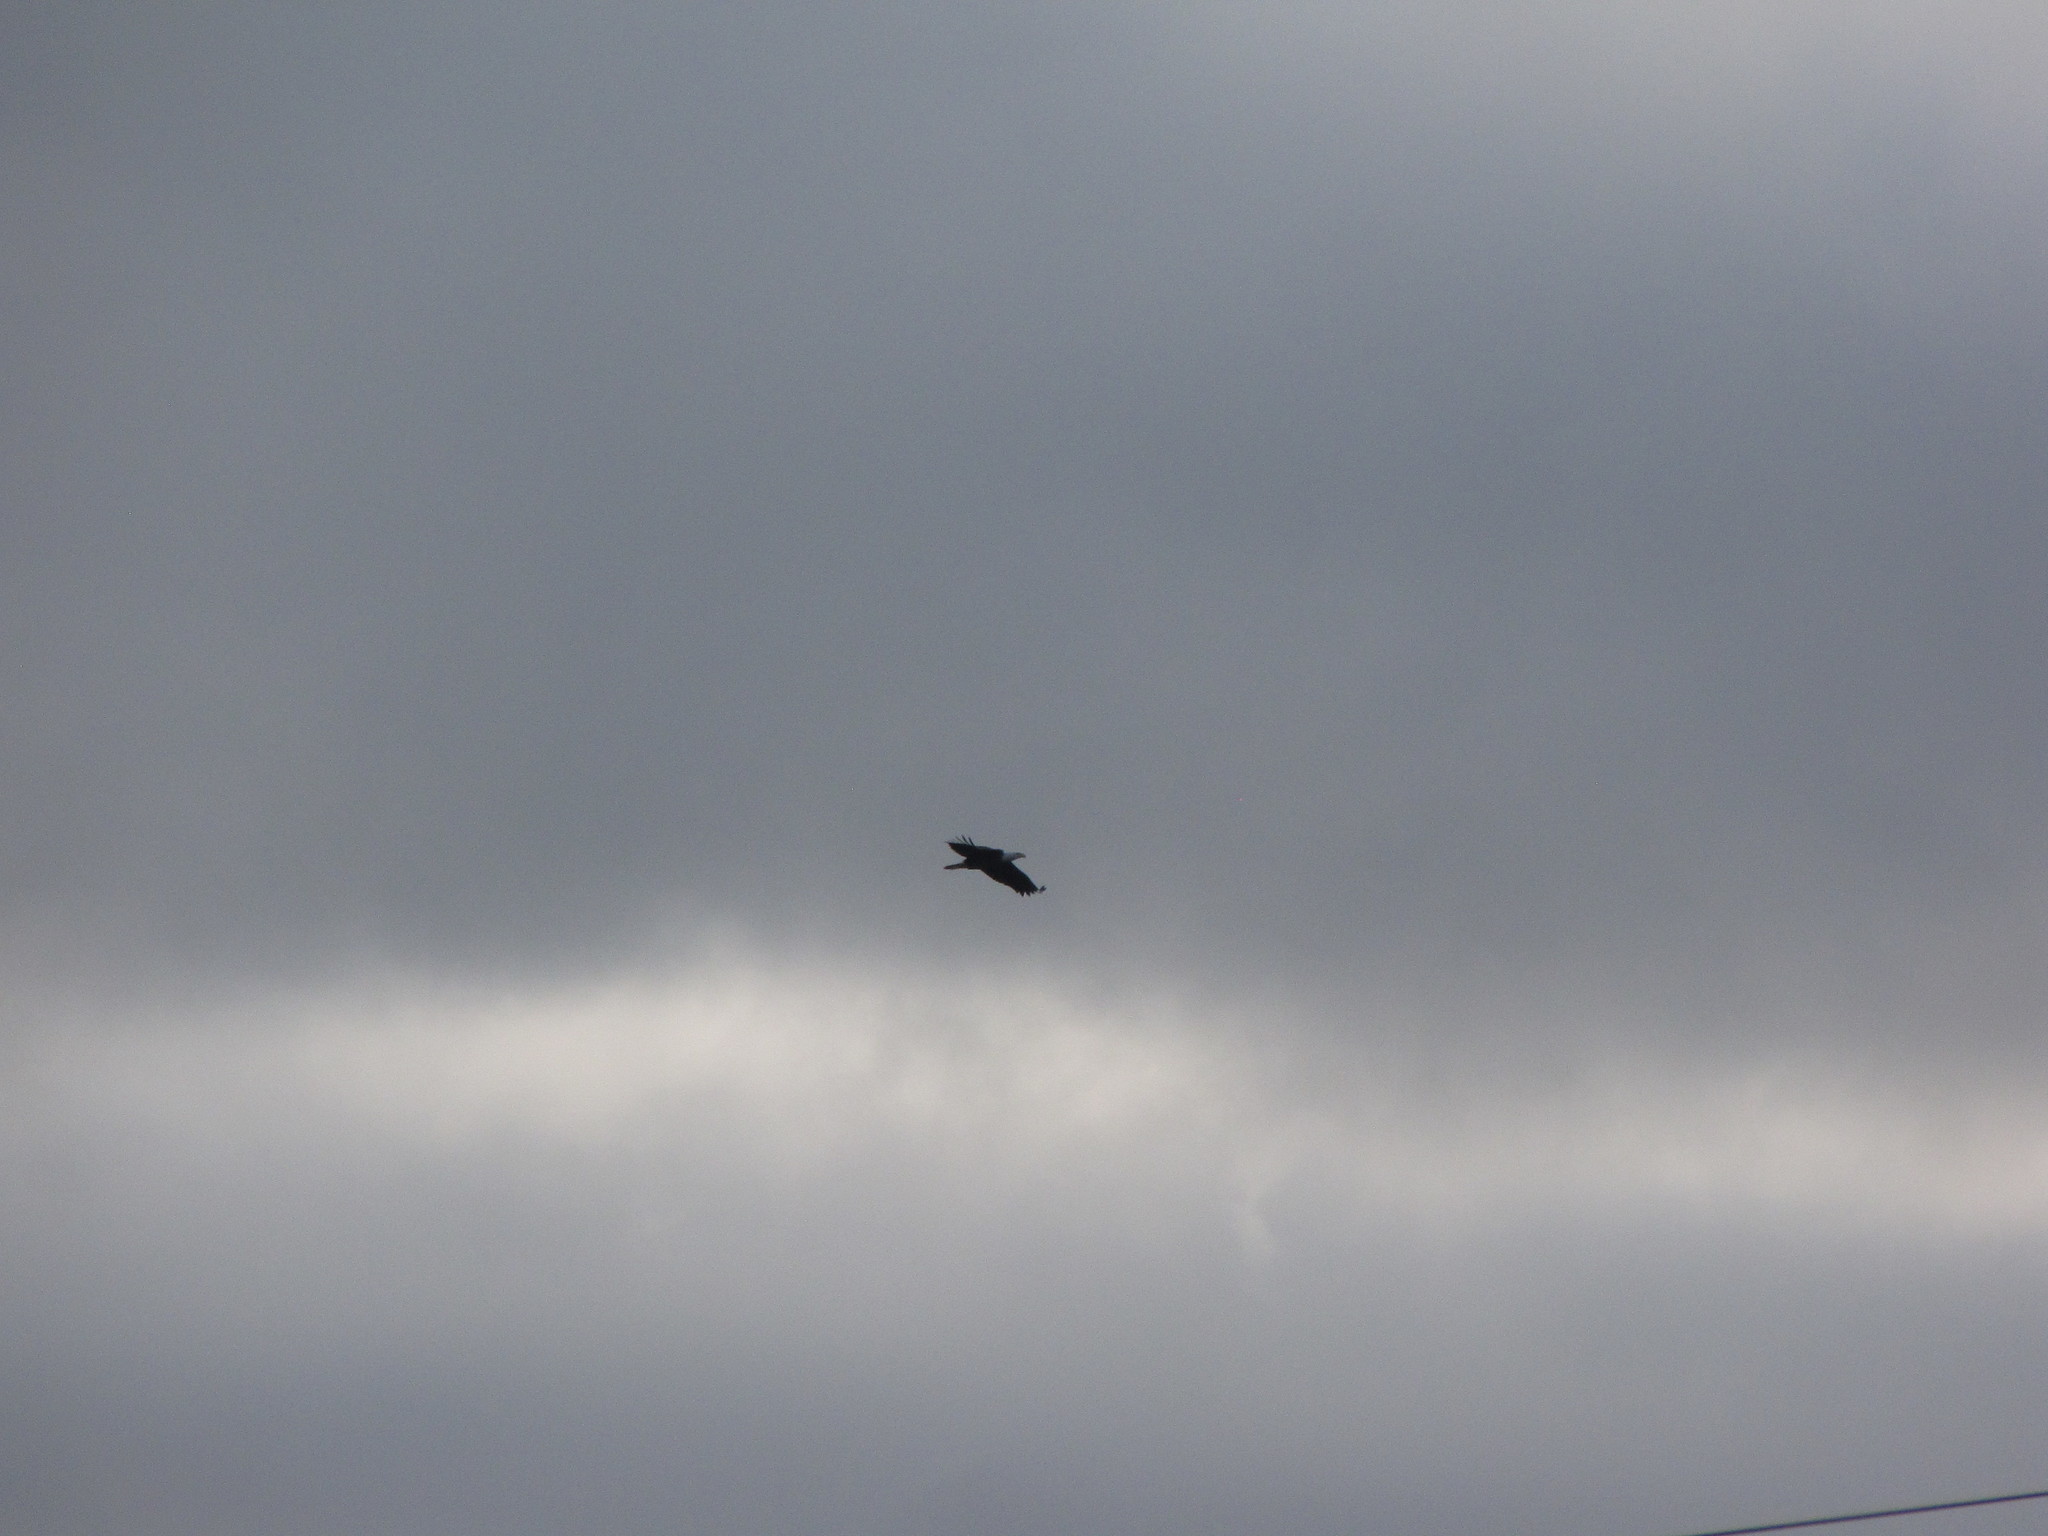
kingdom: Animalia
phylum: Chordata
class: Aves
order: Accipitriformes
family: Accipitridae
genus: Haliaeetus
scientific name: Haliaeetus leucocephalus
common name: Bald eagle
